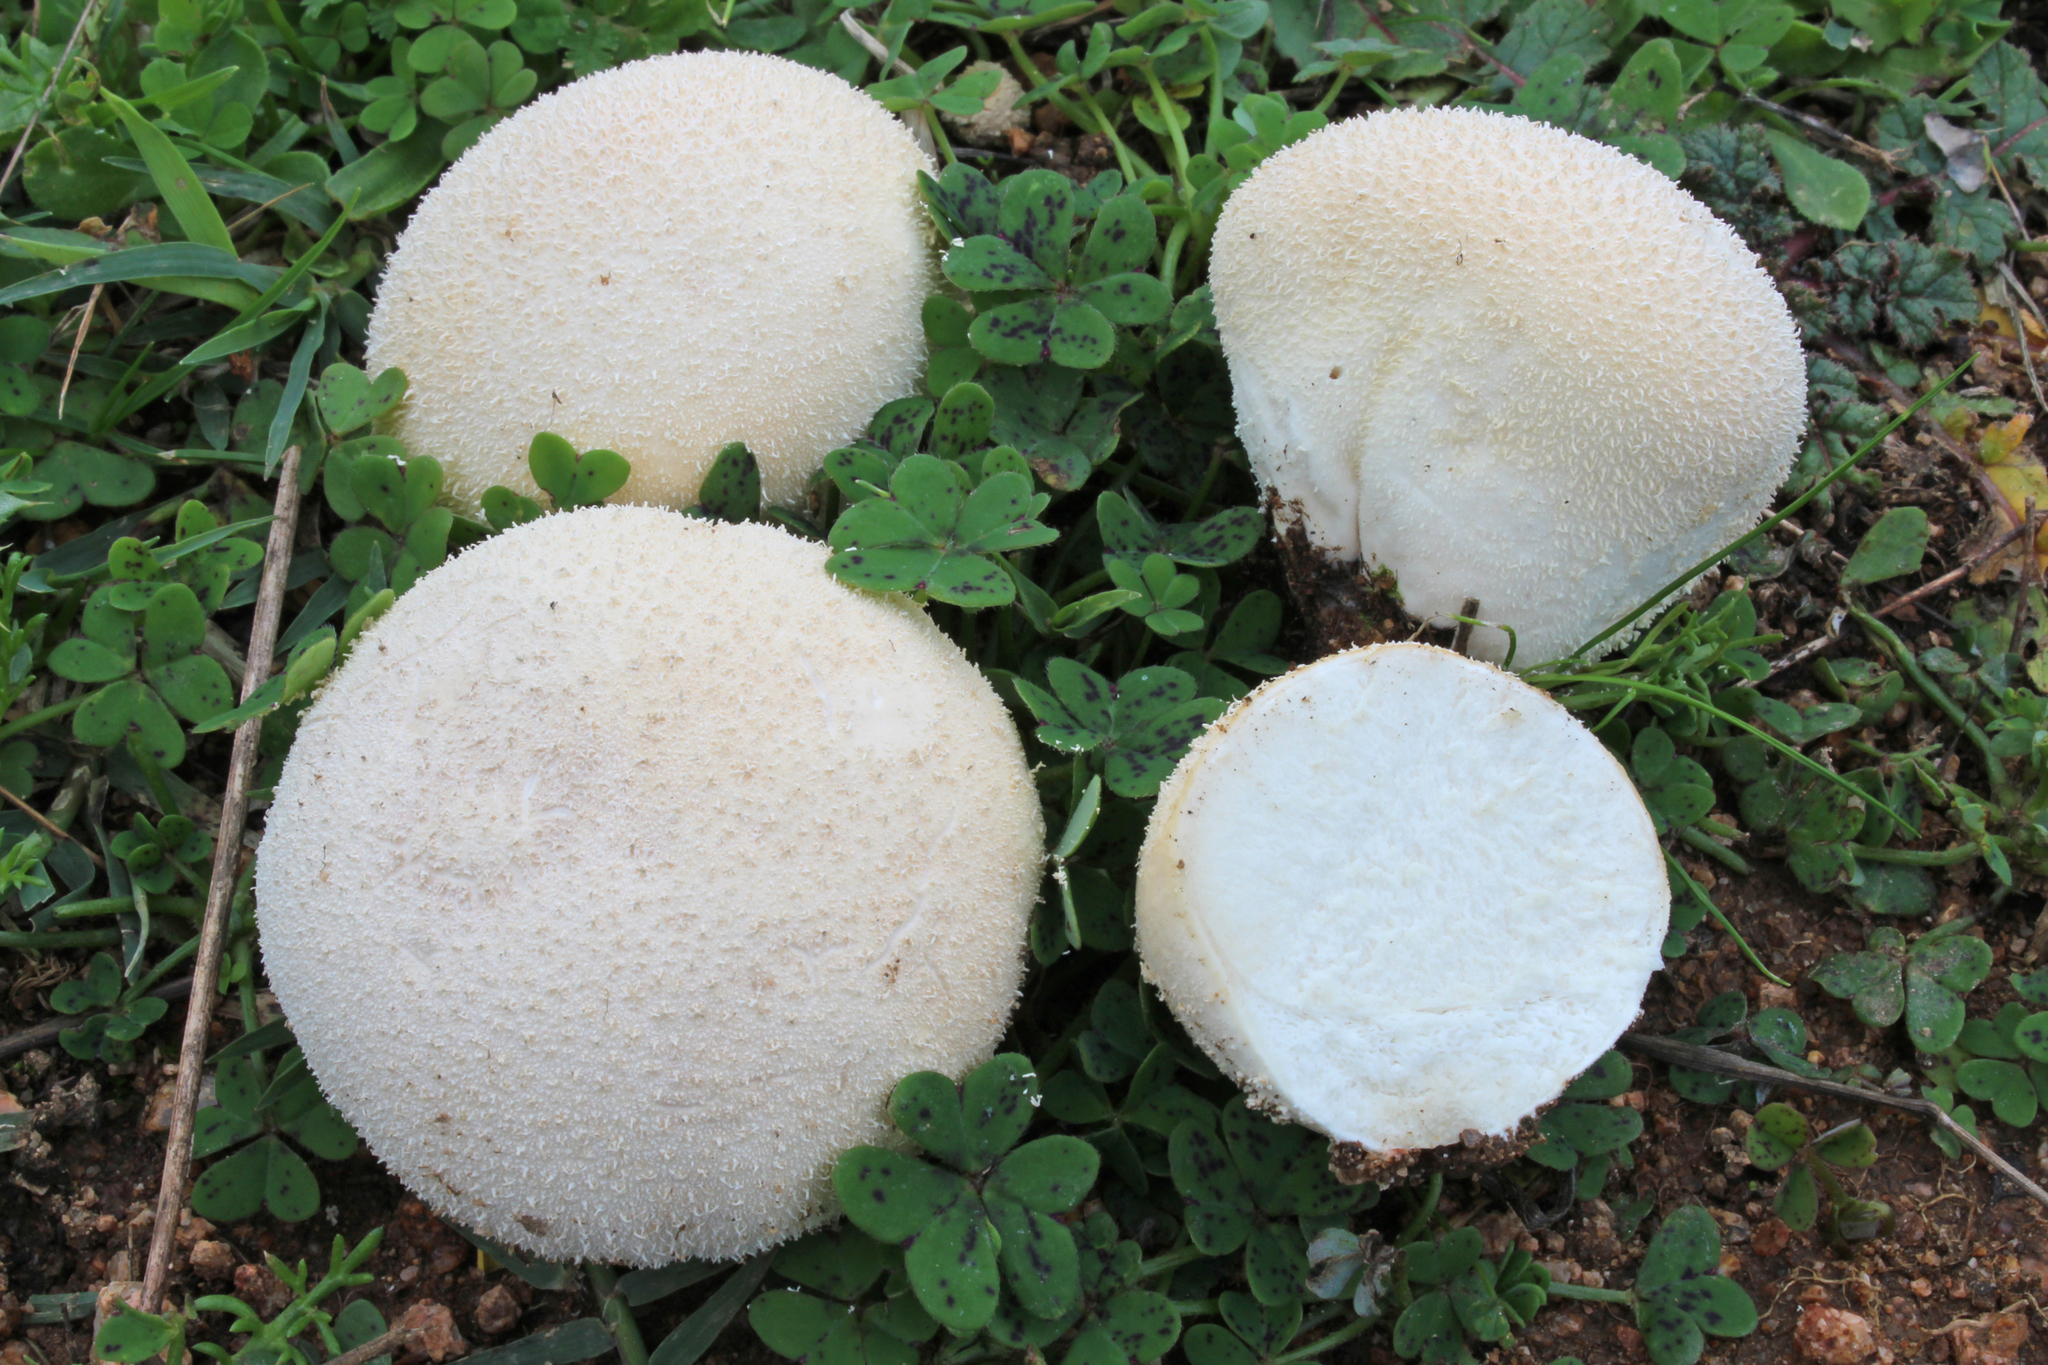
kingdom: Fungi
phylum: Basidiomycota
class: Agaricomycetes
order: Agaricales
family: Lycoperdaceae
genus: Lycoperdon
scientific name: Lycoperdon pratense
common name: Meadow puffball
